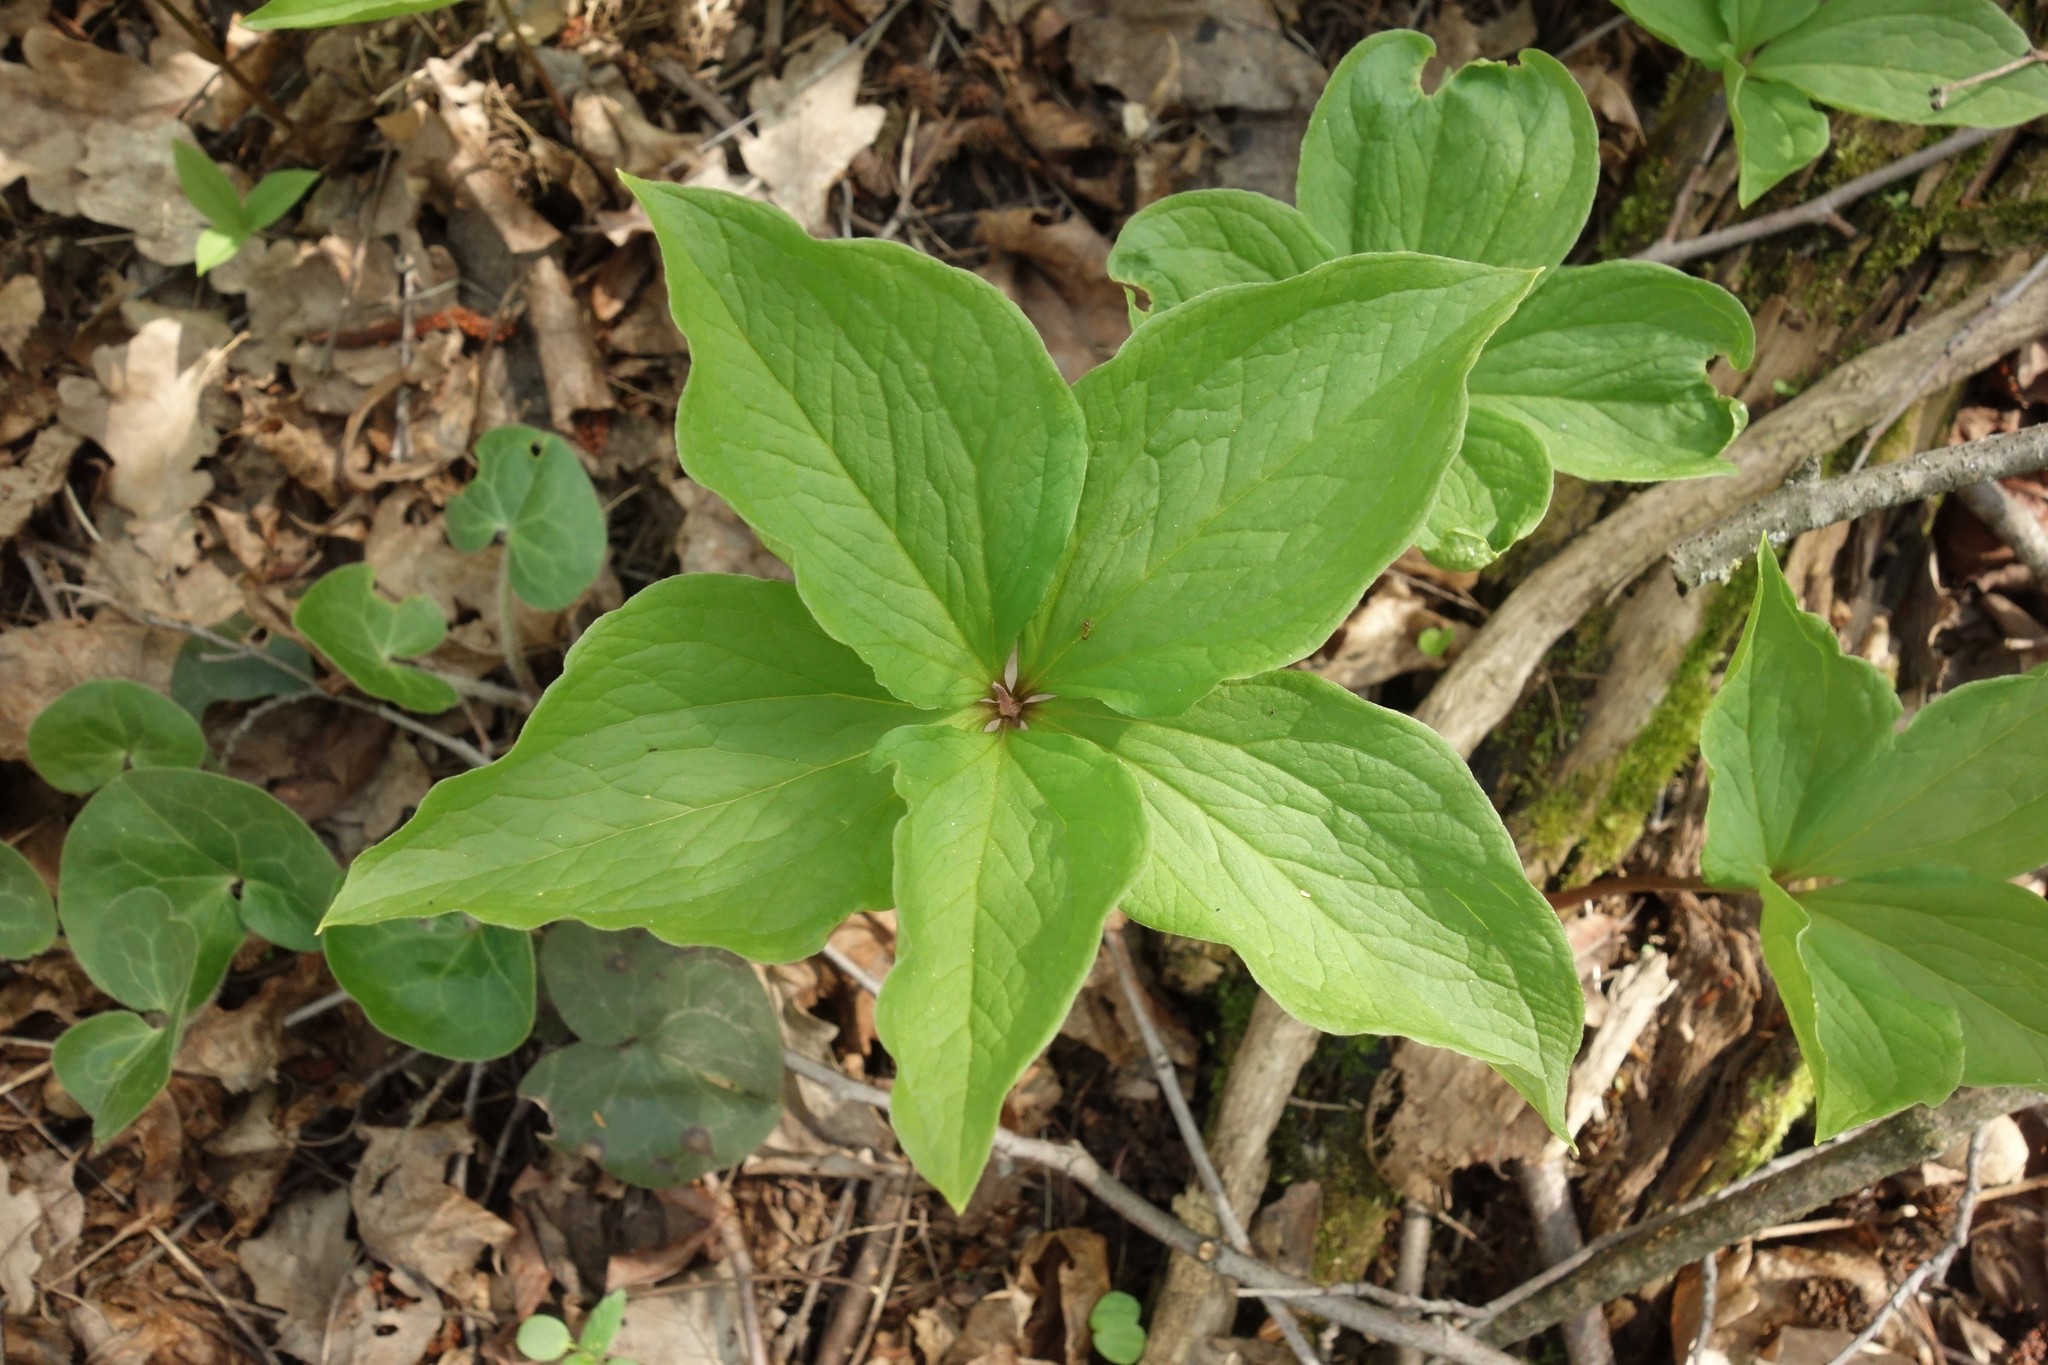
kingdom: Plantae
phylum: Tracheophyta
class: Liliopsida
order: Liliales
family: Melanthiaceae
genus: Paris
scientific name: Paris quadrifolia
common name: Herb-paris
